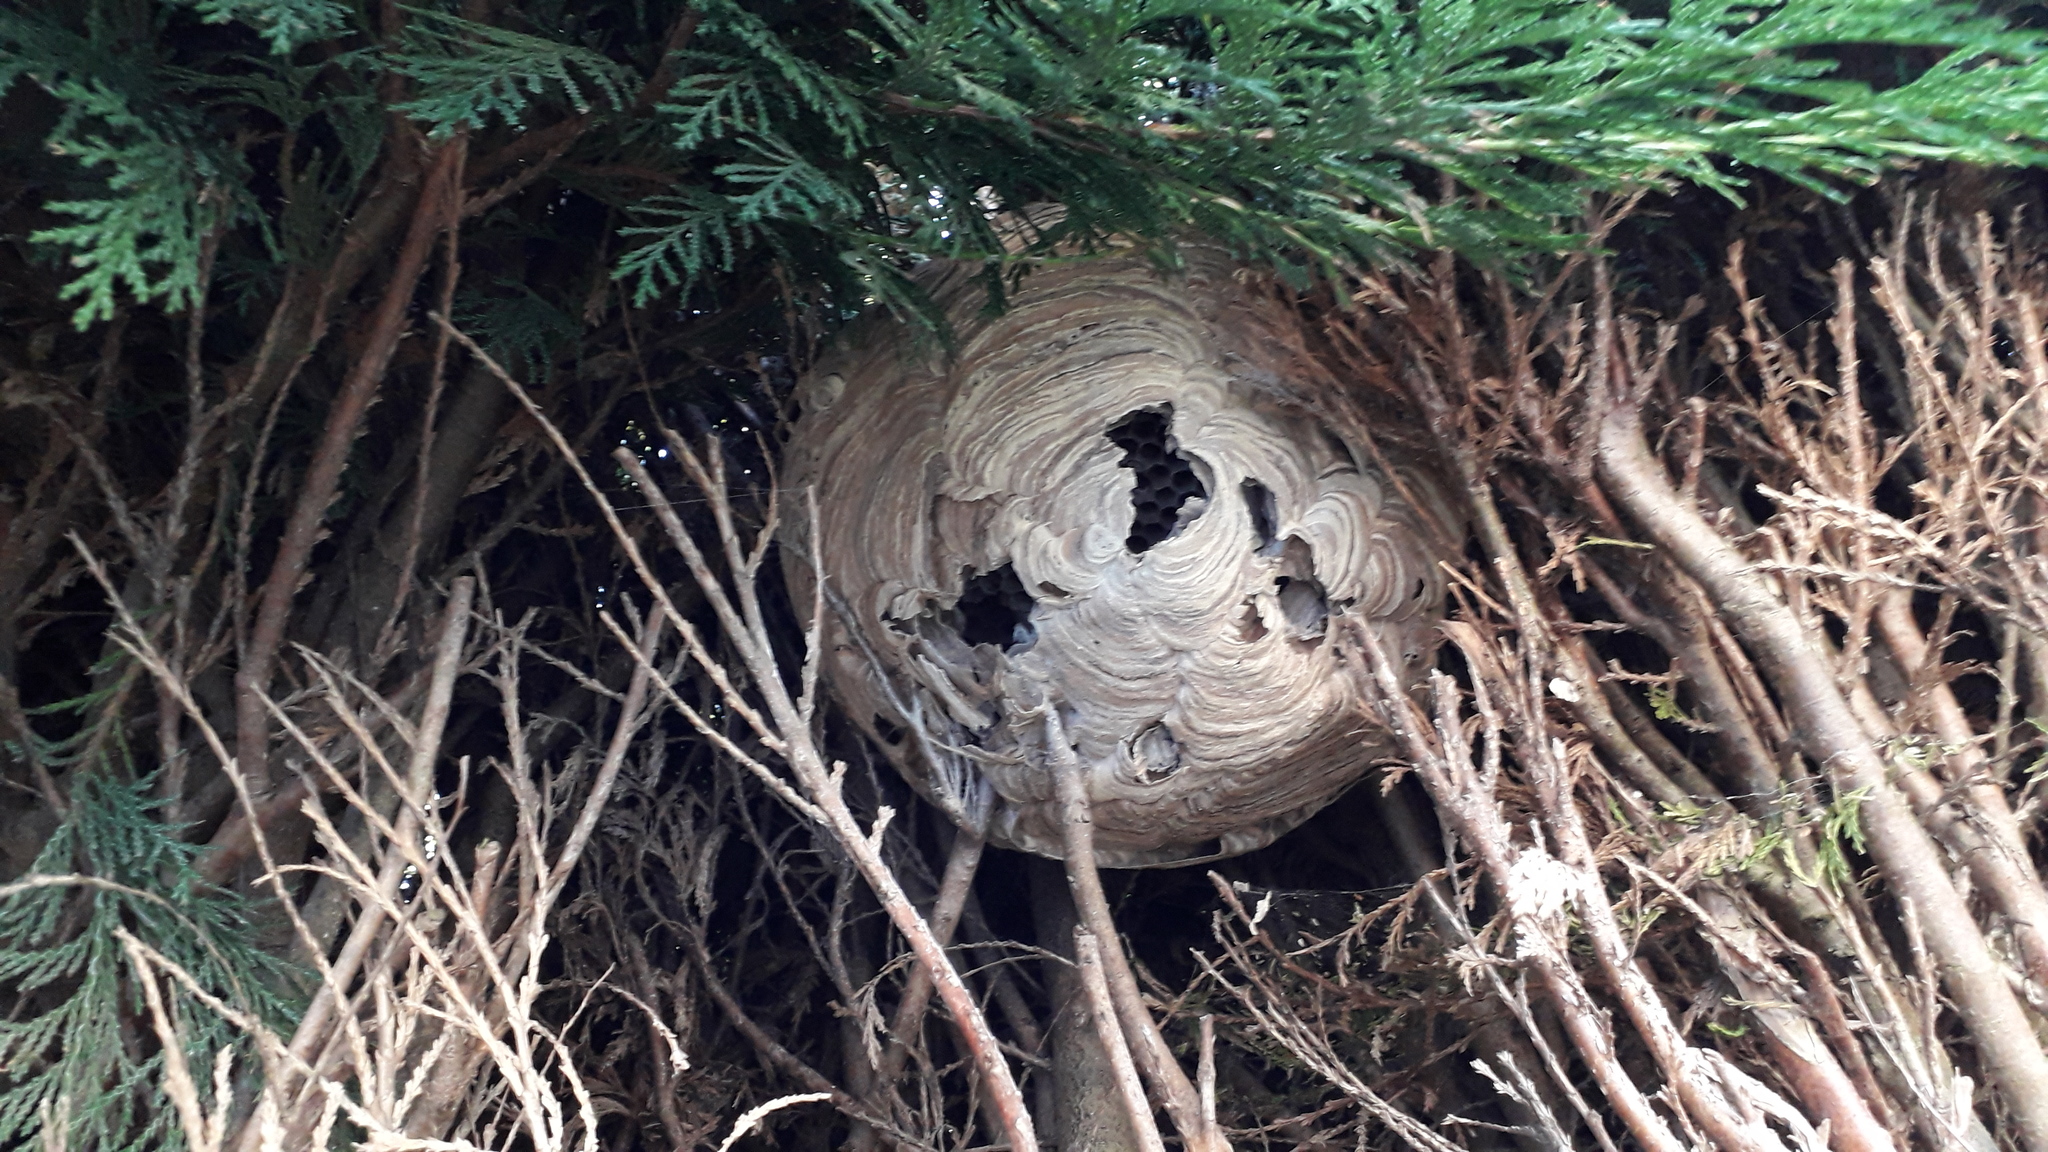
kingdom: Animalia
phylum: Arthropoda
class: Insecta
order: Hymenoptera
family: Vespidae
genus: Vespa
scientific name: Vespa velutina
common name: Asian hornet
